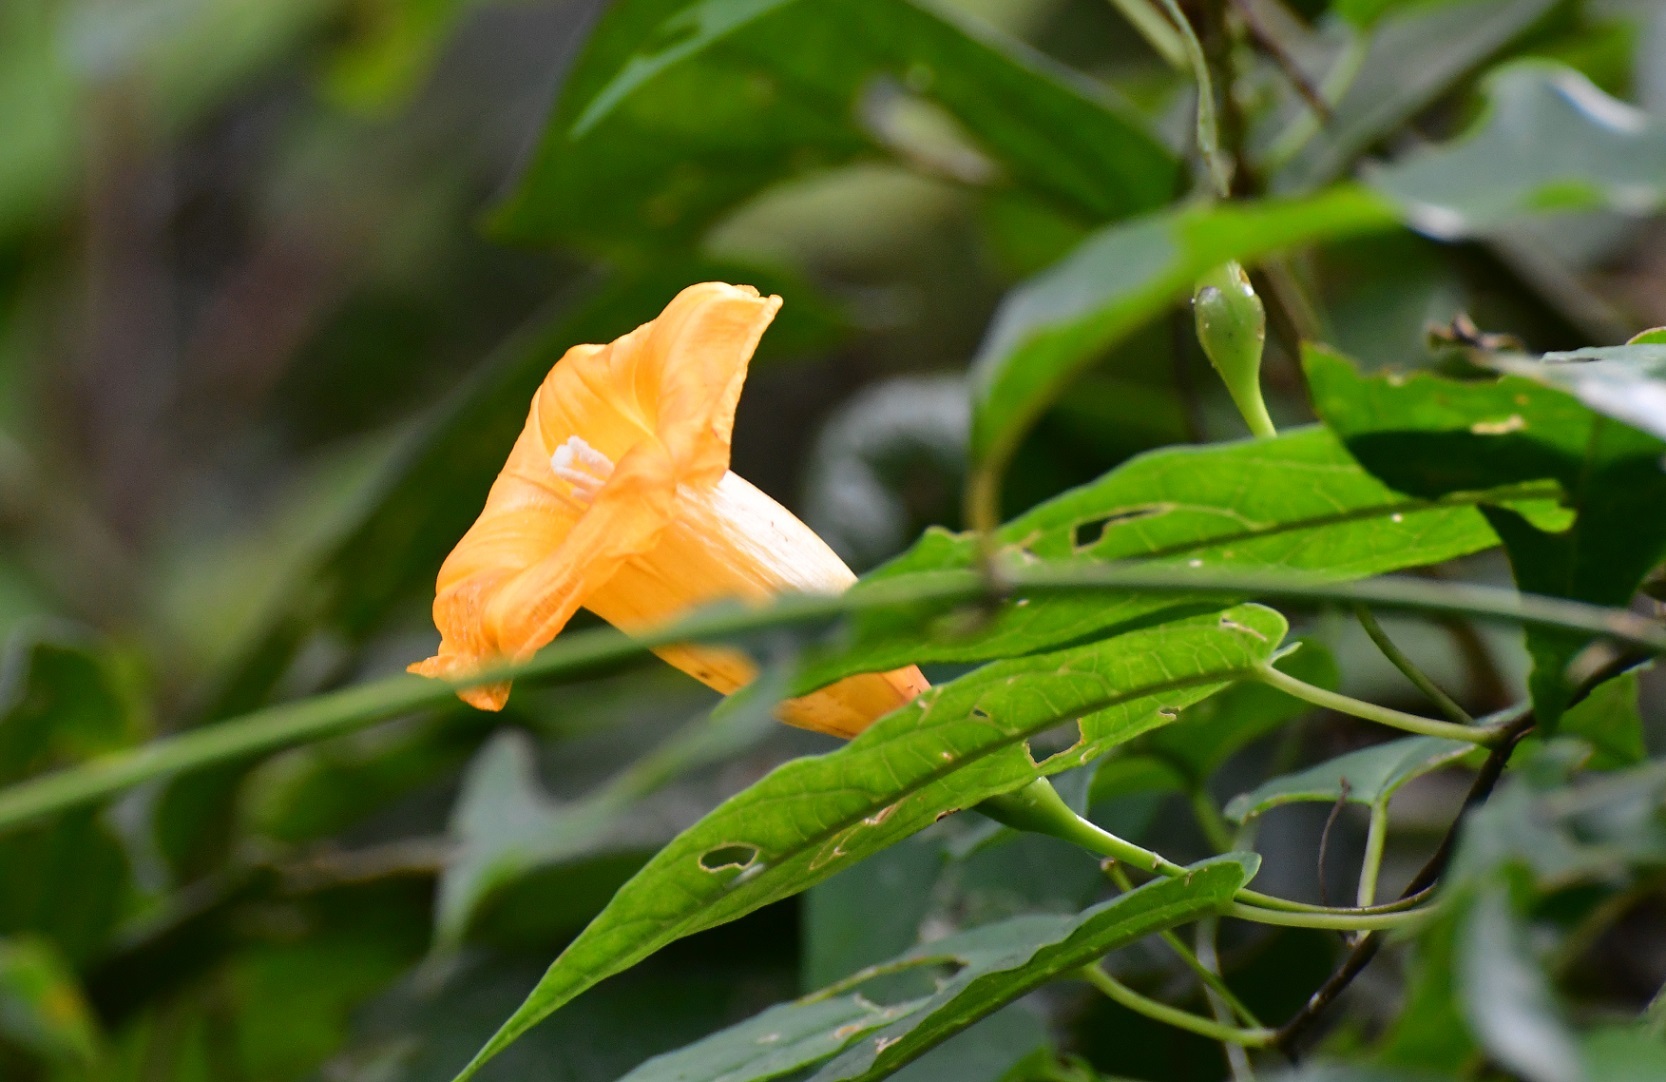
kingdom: Plantae
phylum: Tracheophyta
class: Magnoliopsida
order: Solanales
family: Convolvulaceae
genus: Ipomoea
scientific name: Ipomoea aurantiaca
